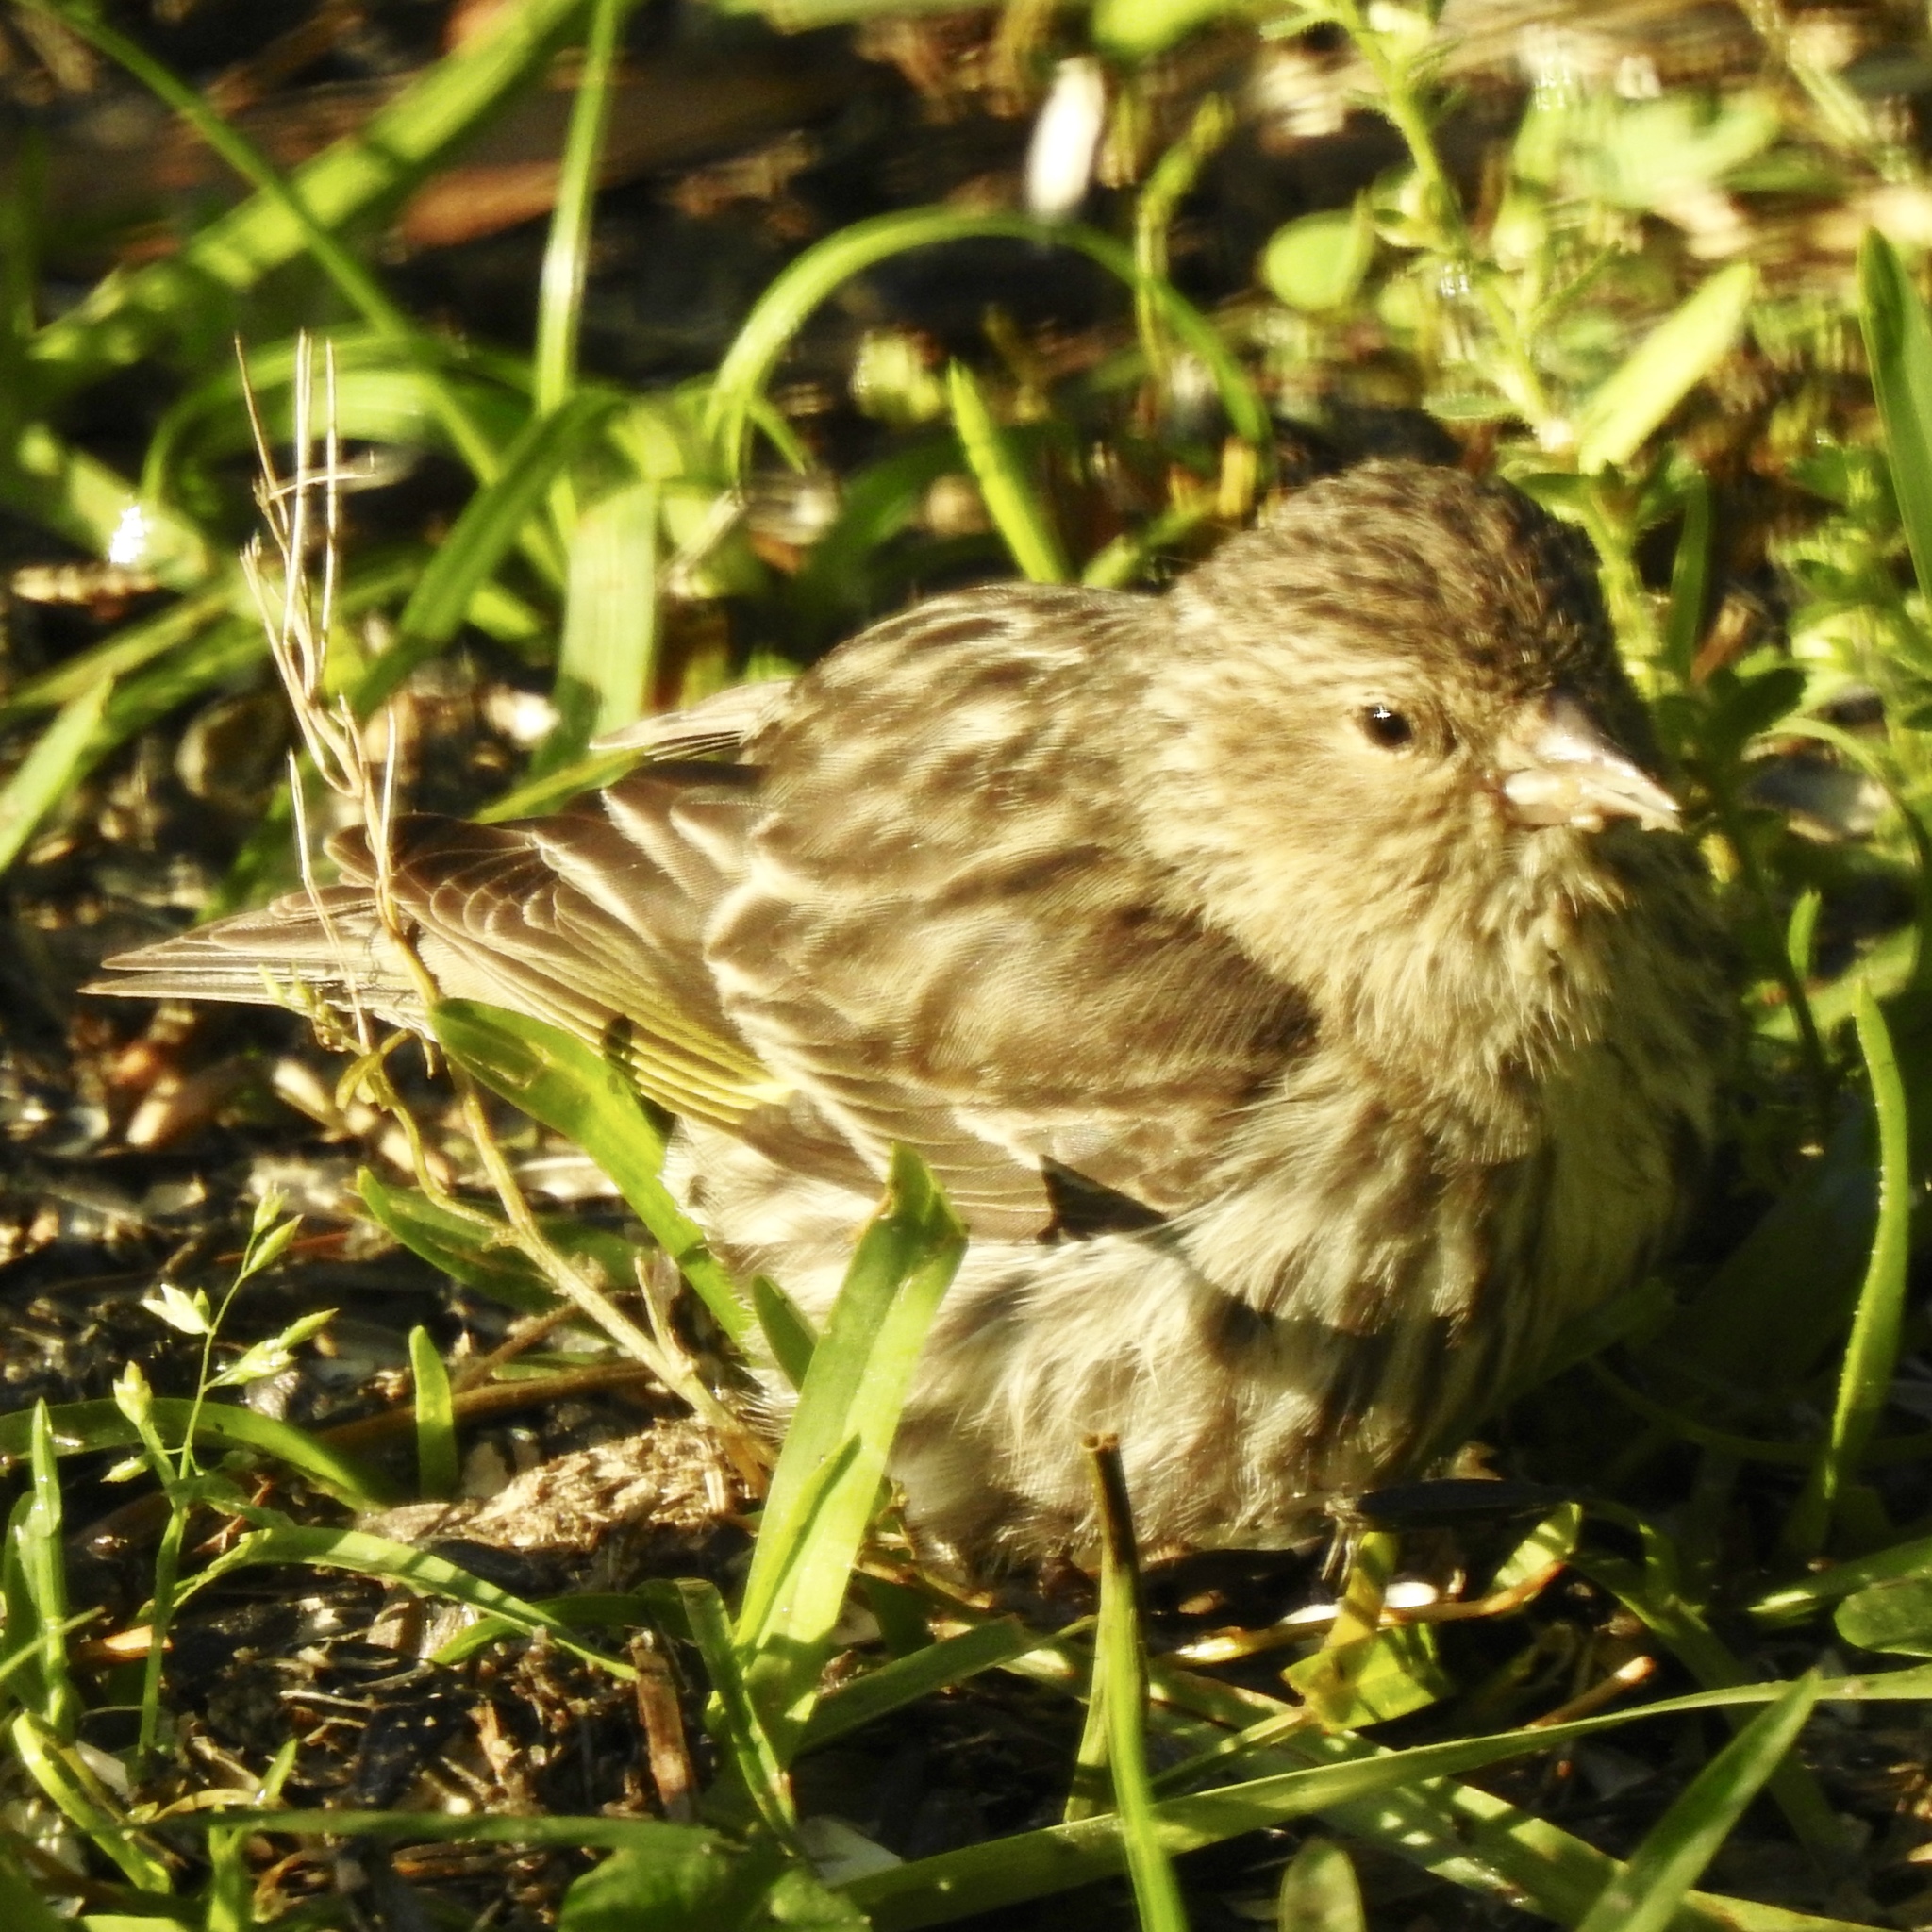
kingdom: Animalia
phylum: Chordata
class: Aves
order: Passeriformes
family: Fringillidae
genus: Spinus
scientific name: Spinus pinus
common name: Pine siskin
